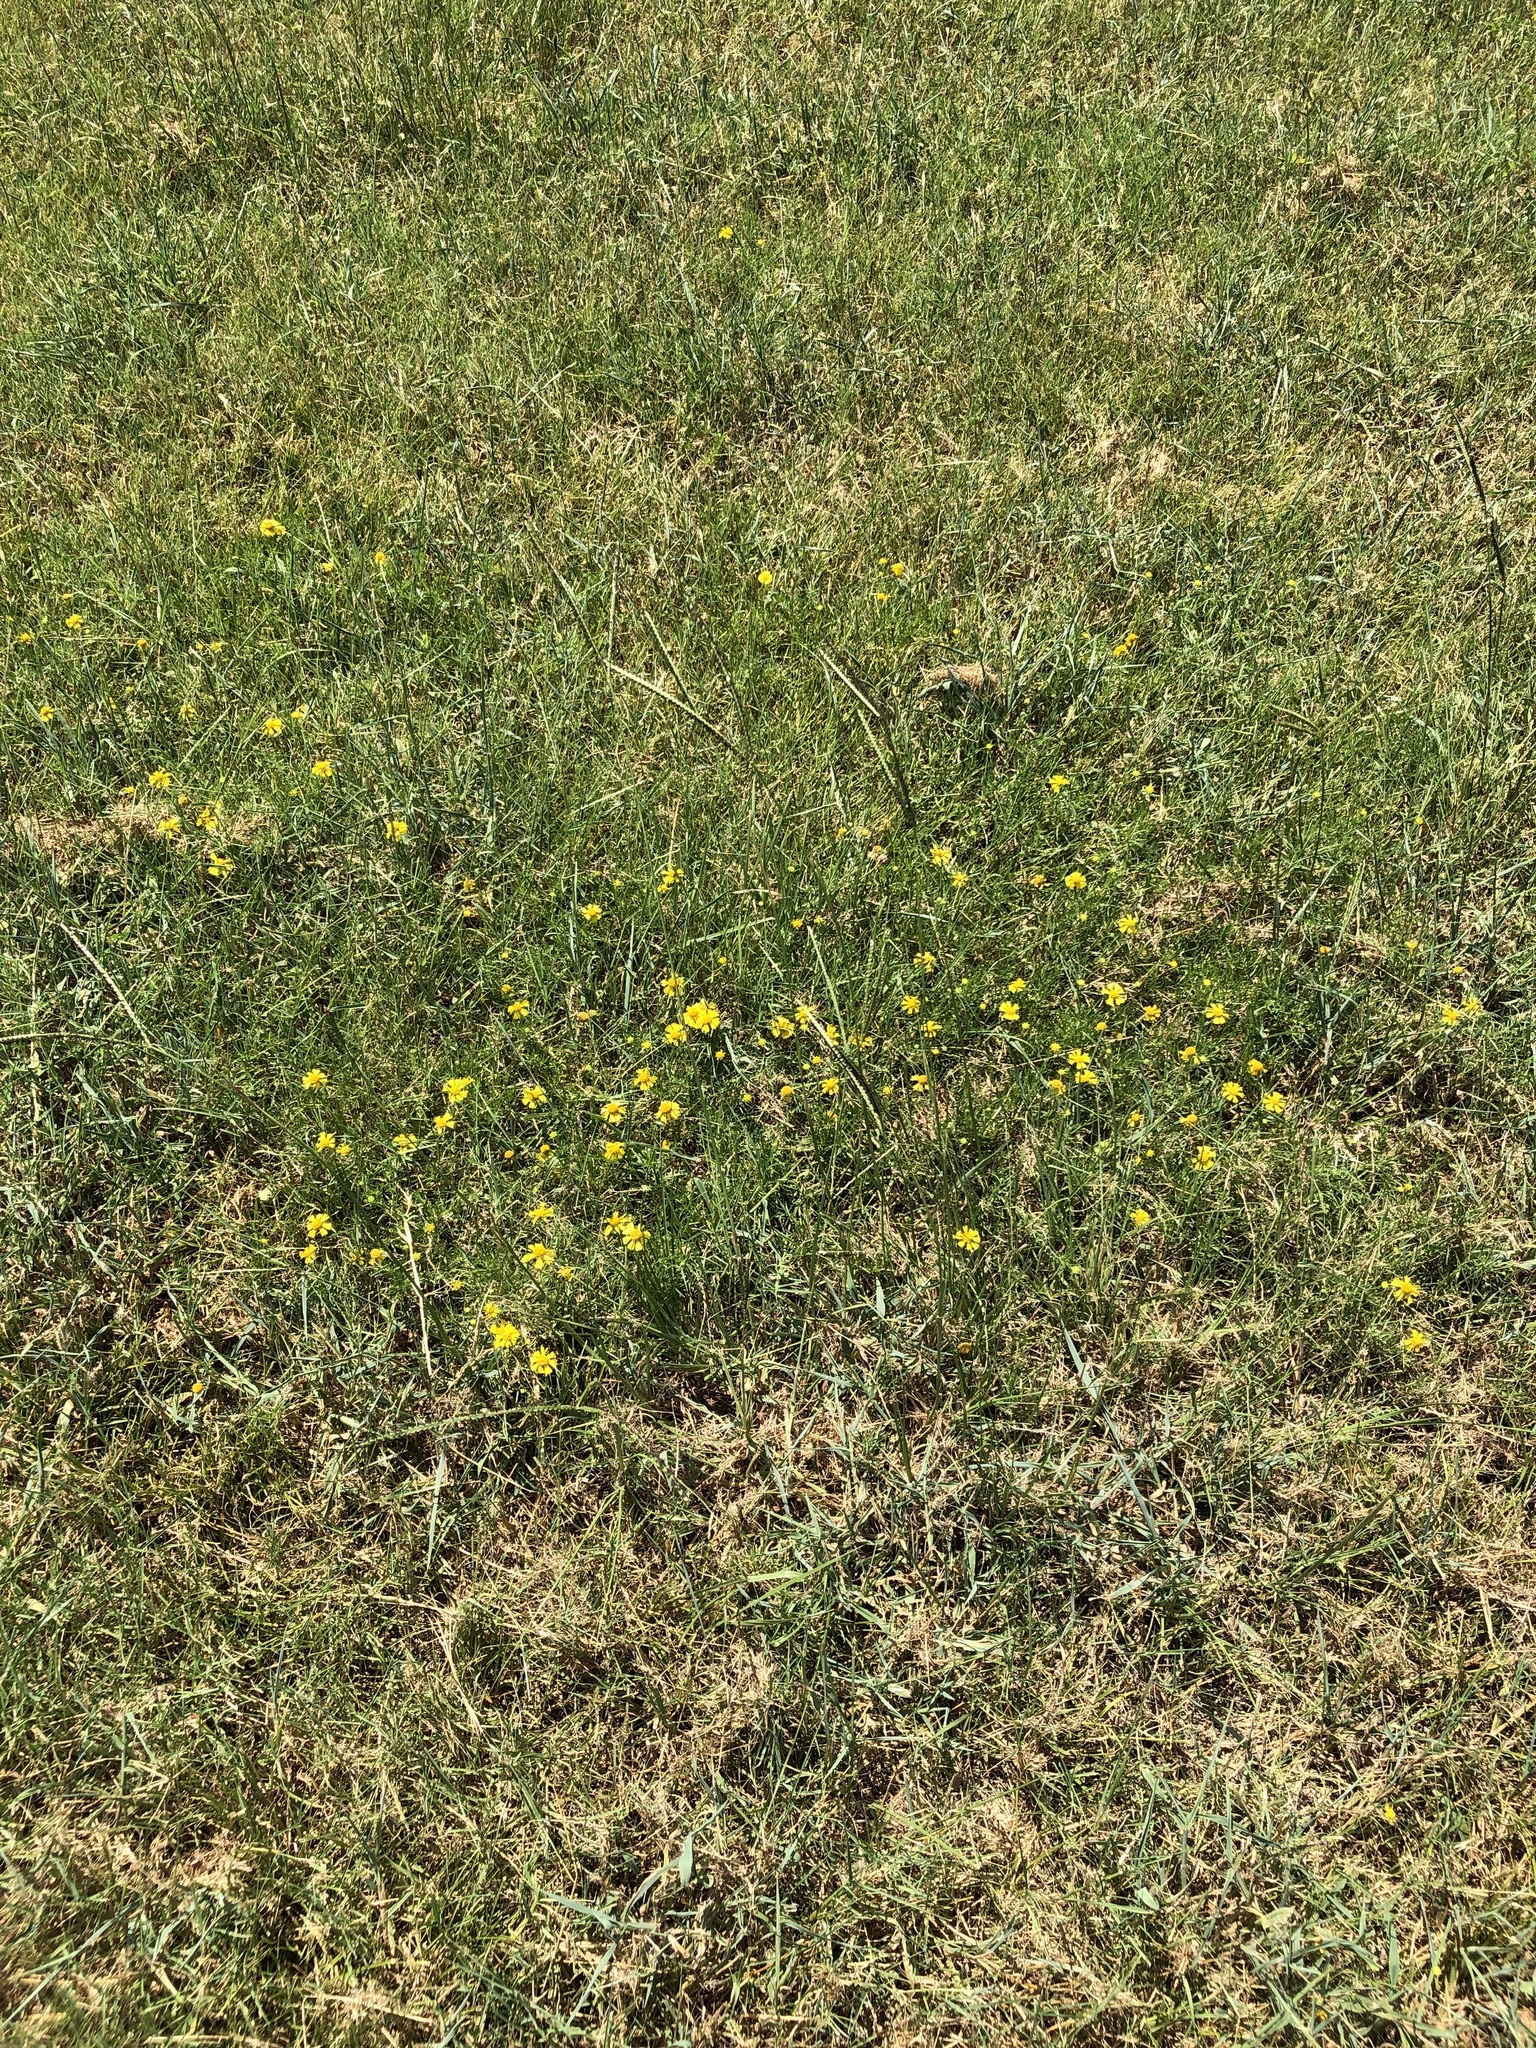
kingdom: Plantae
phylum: Tracheophyta
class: Liliopsida
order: Poales
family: Poaceae
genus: Paspalum
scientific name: Paspalum notatum
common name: Bahiagrass
